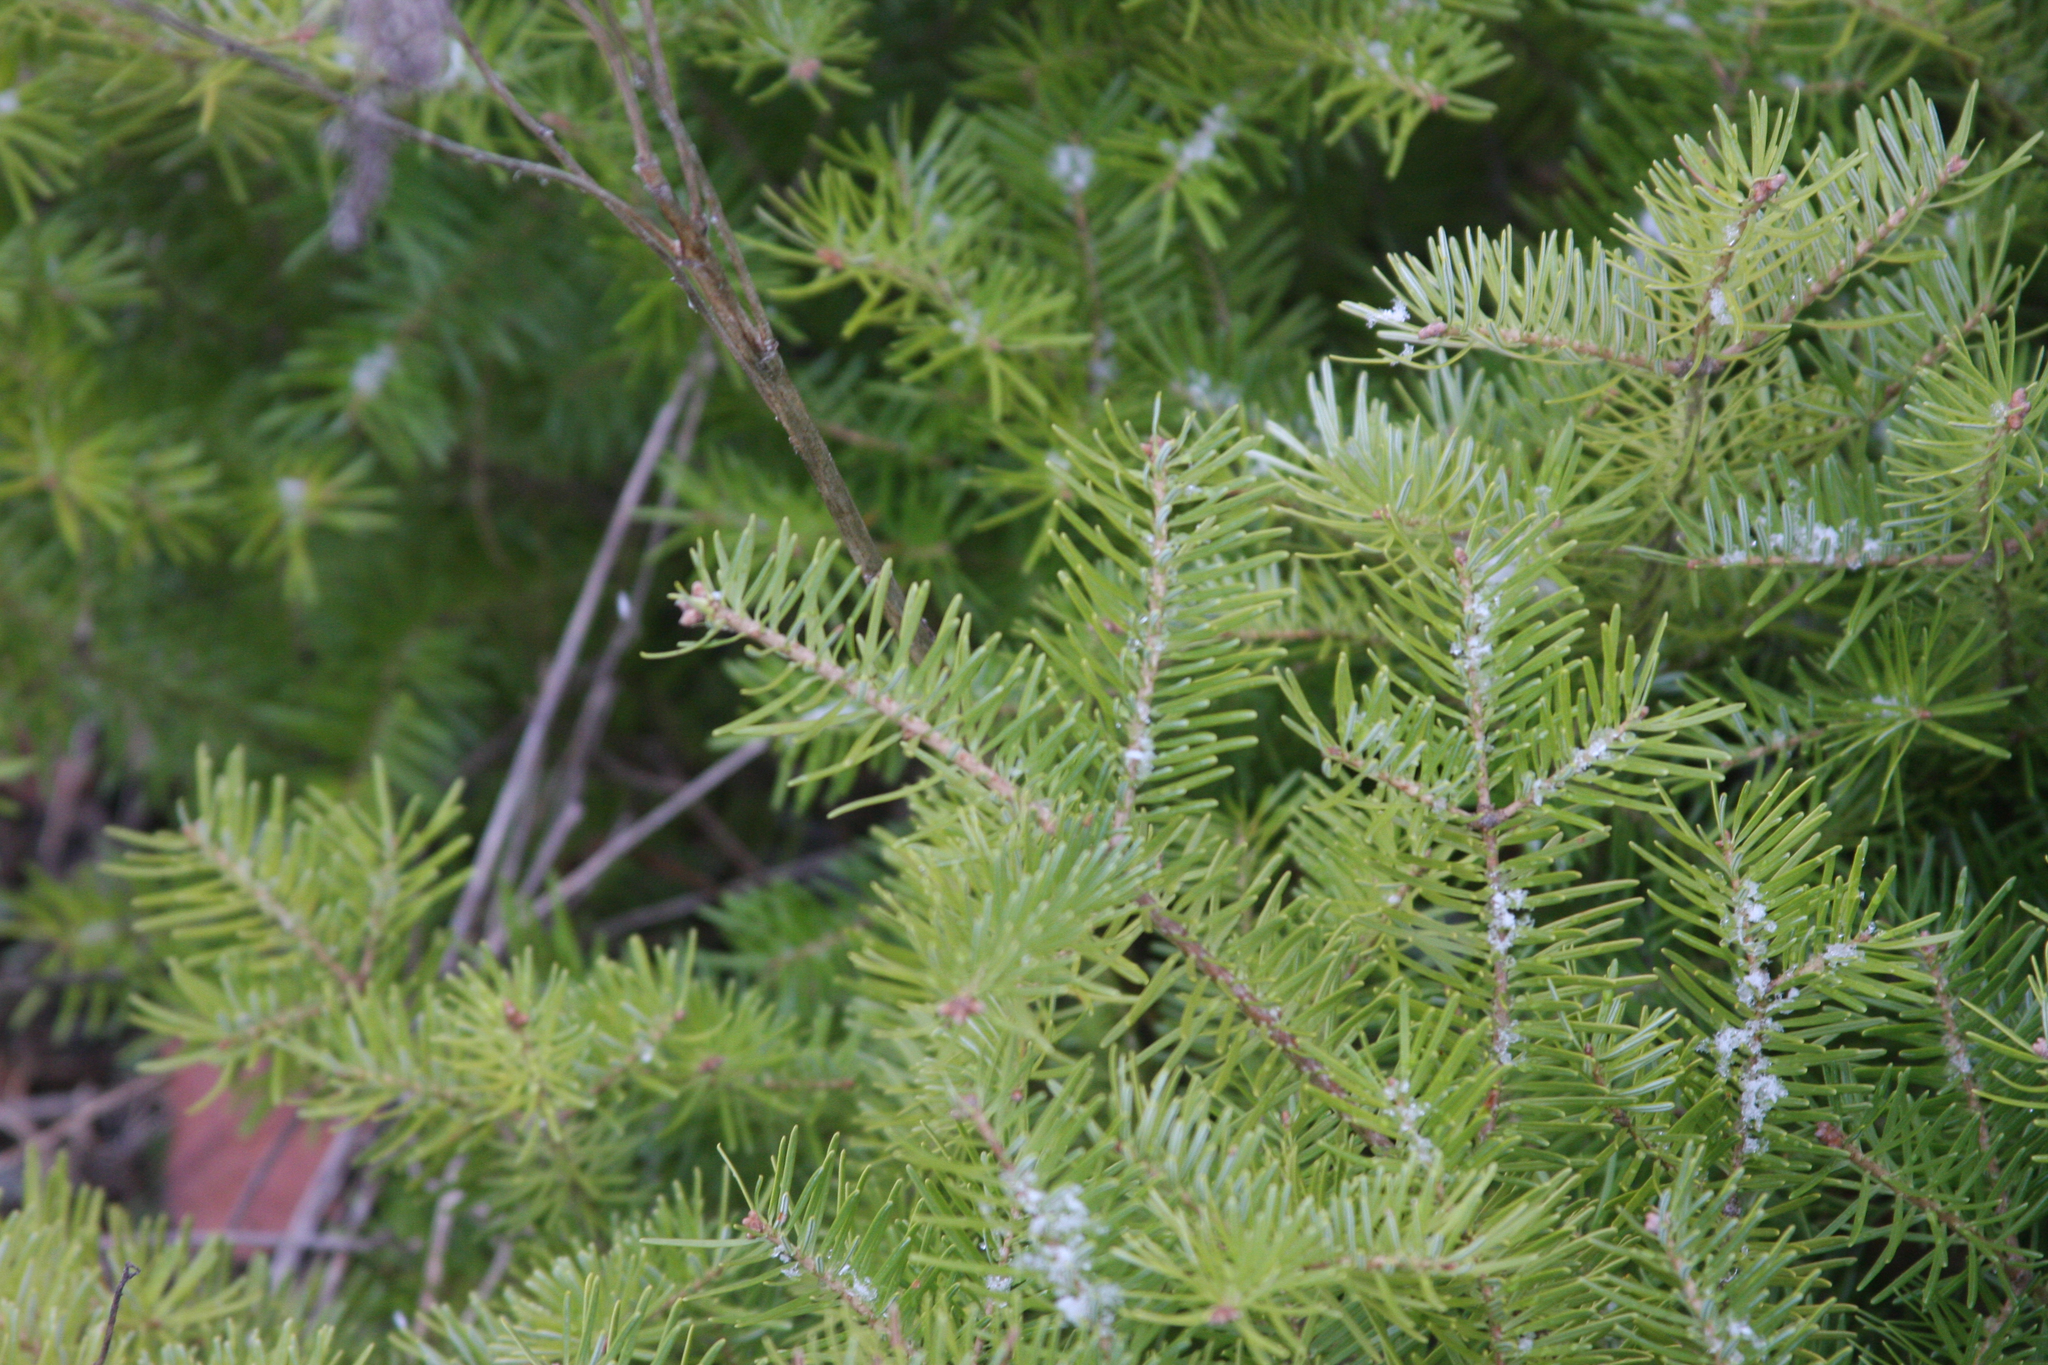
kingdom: Plantae
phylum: Tracheophyta
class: Pinopsida
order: Pinales
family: Pinaceae
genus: Abies
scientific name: Abies balsamea
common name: Balsam fir
